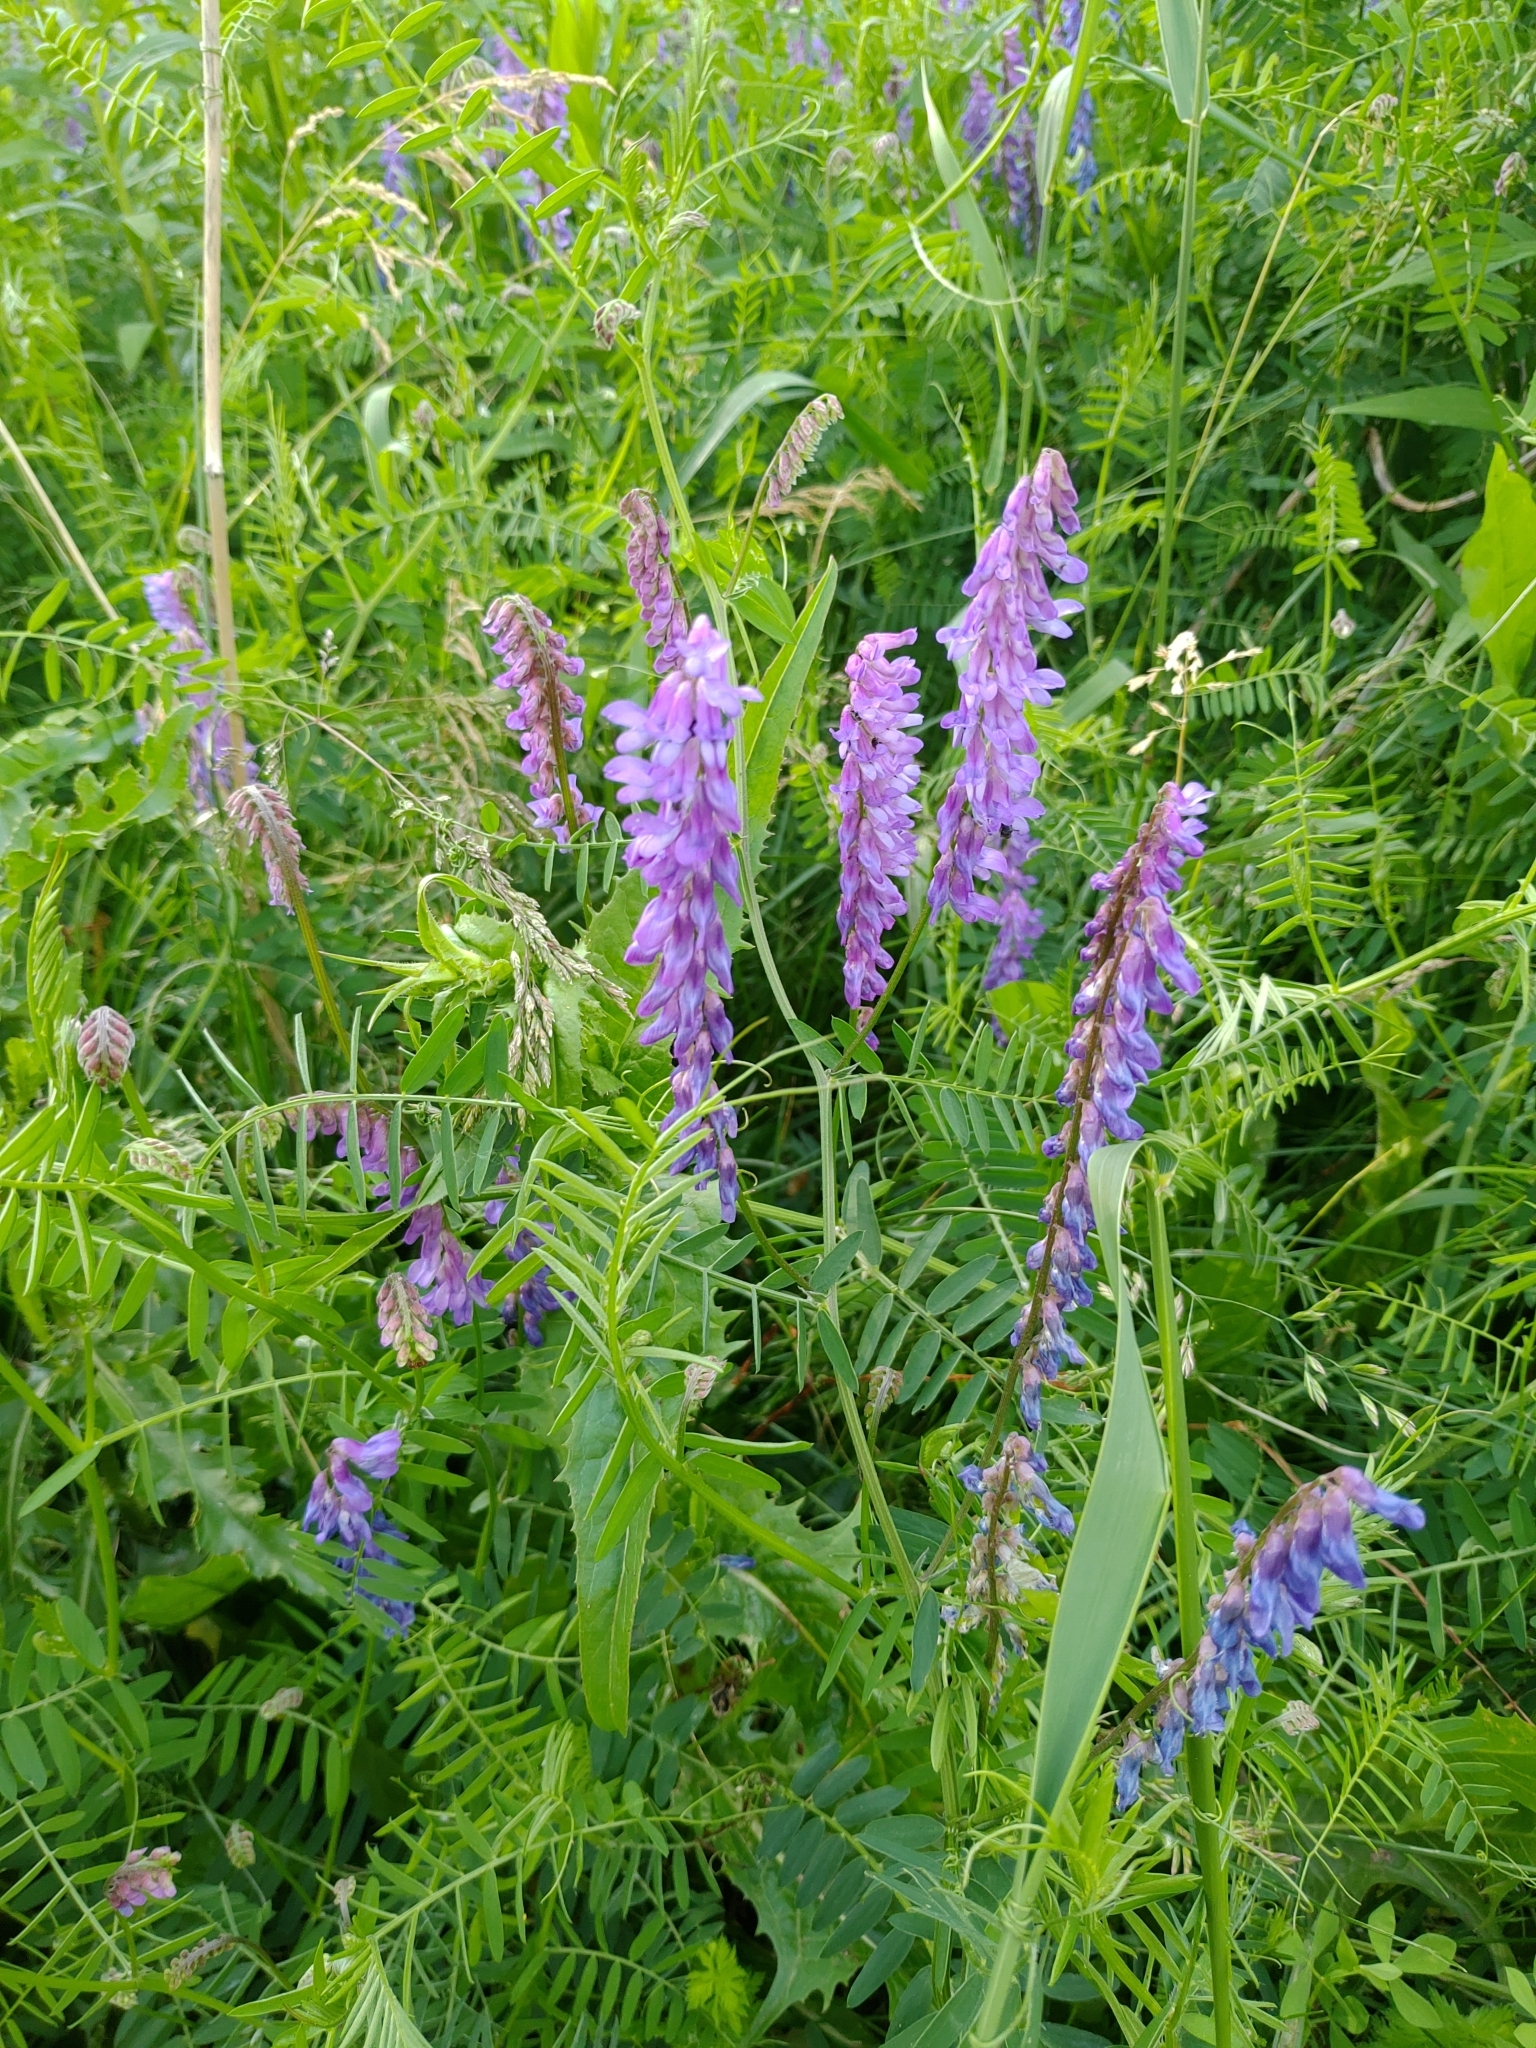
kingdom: Plantae
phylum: Tracheophyta
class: Magnoliopsida
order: Fabales
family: Fabaceae
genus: Vicia
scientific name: Vicia cracca
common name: Bird vetch
